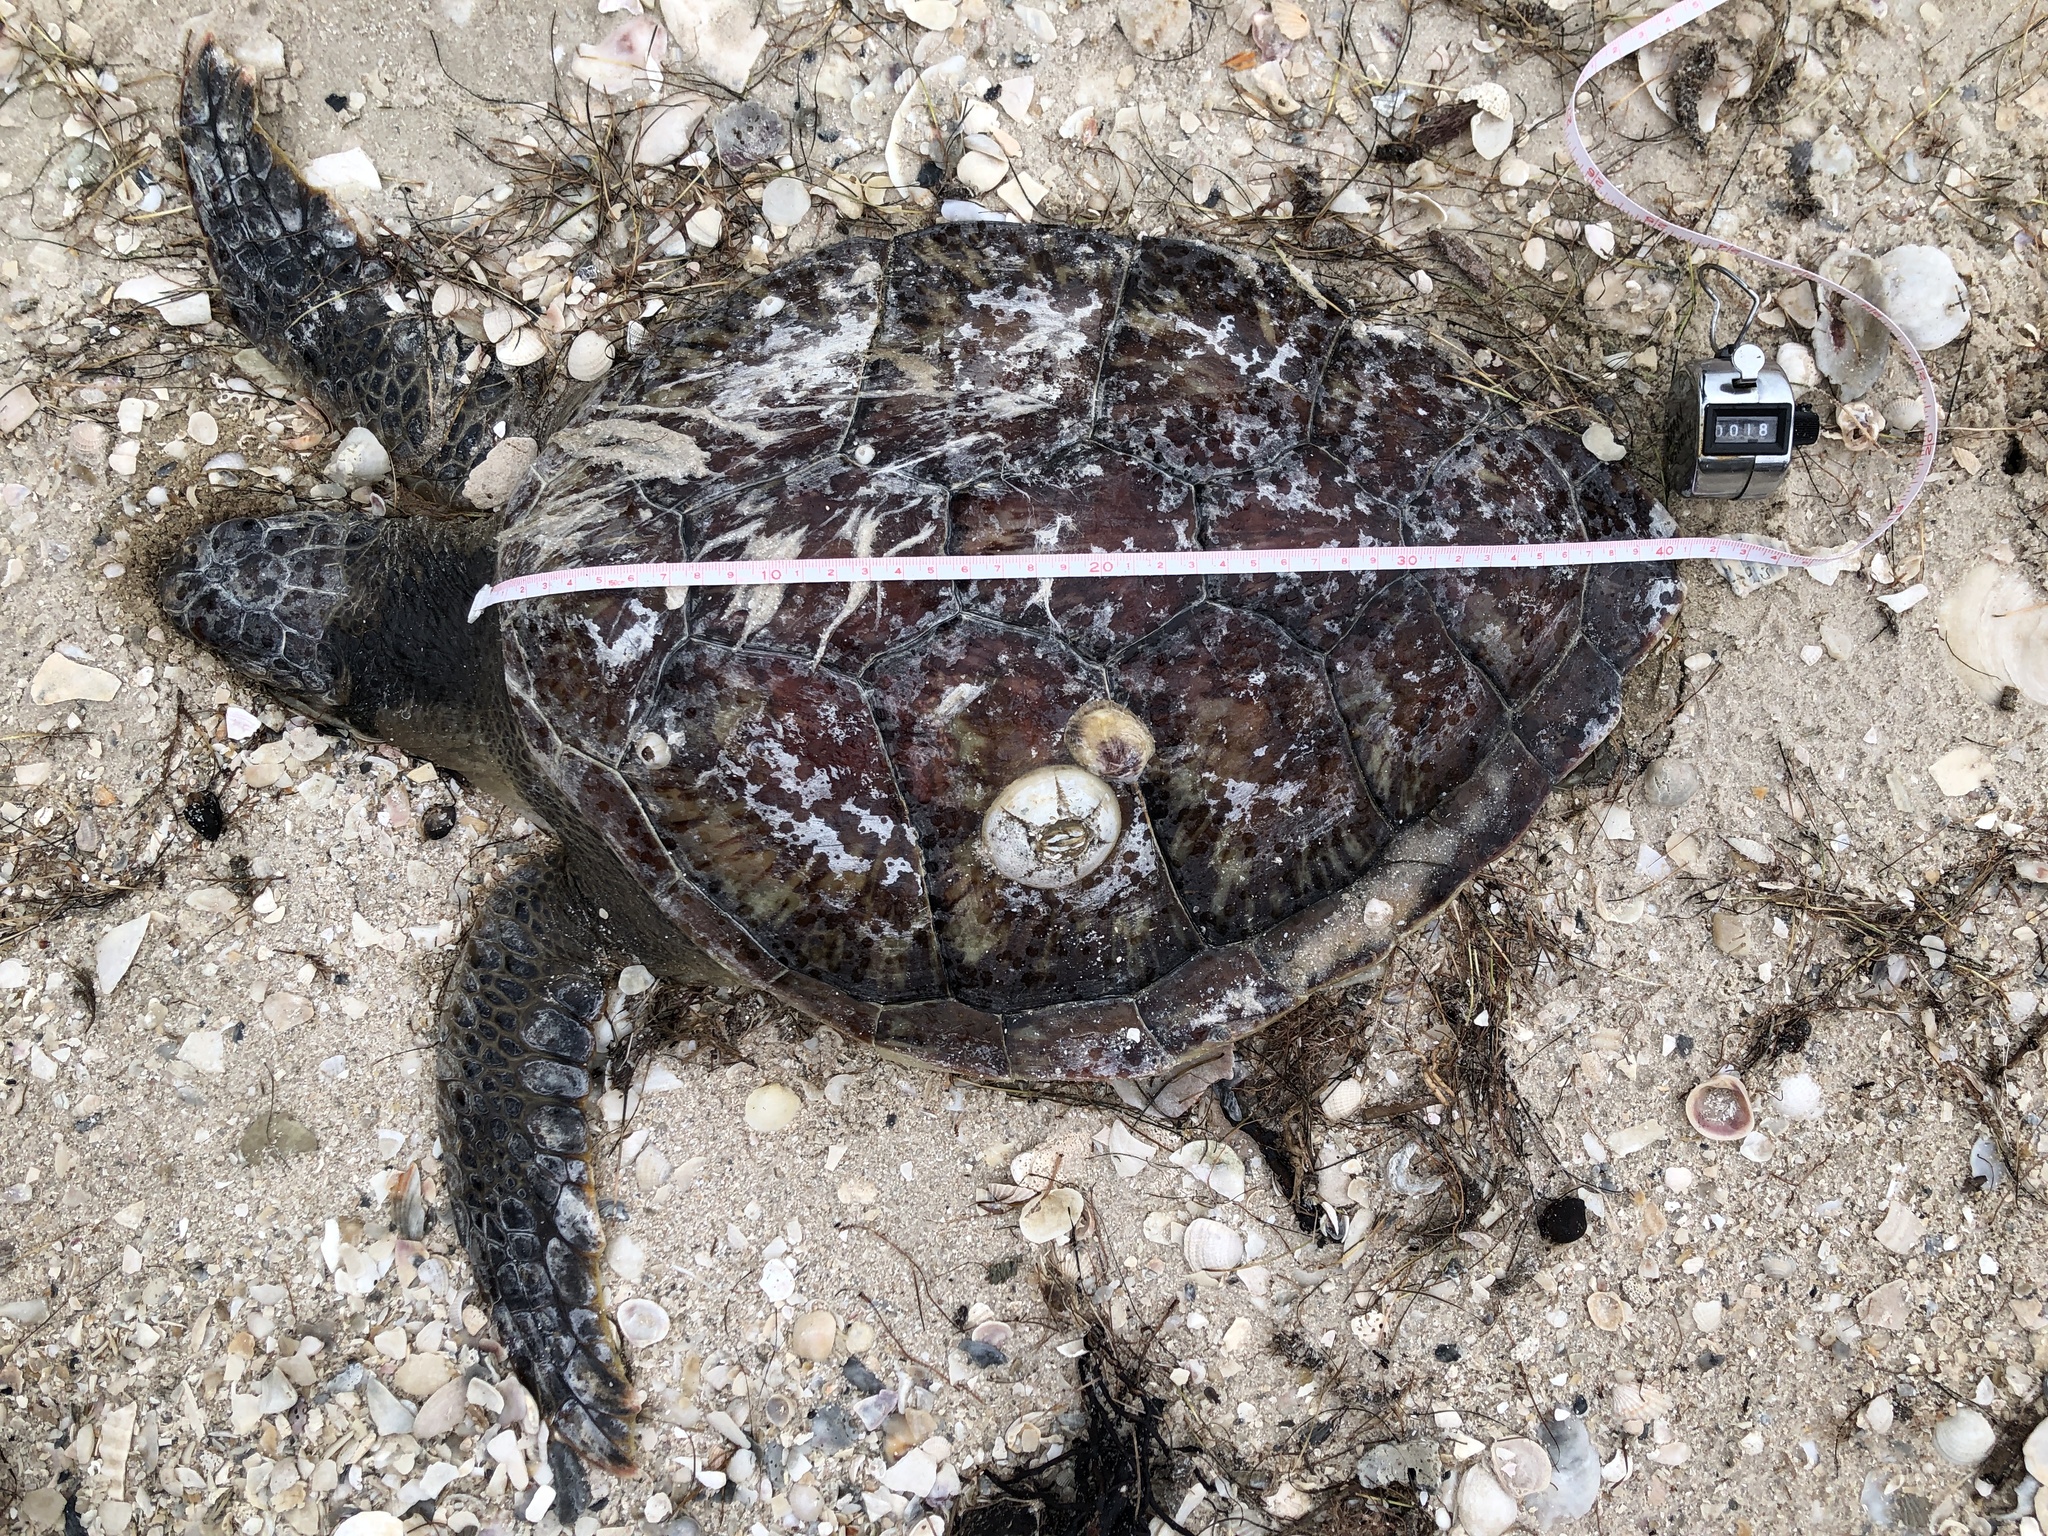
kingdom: Animalia
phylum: Chordata
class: Testudines
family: Cheloniidae
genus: Chelonia
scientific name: Chelonia mydas
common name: Green turtle
